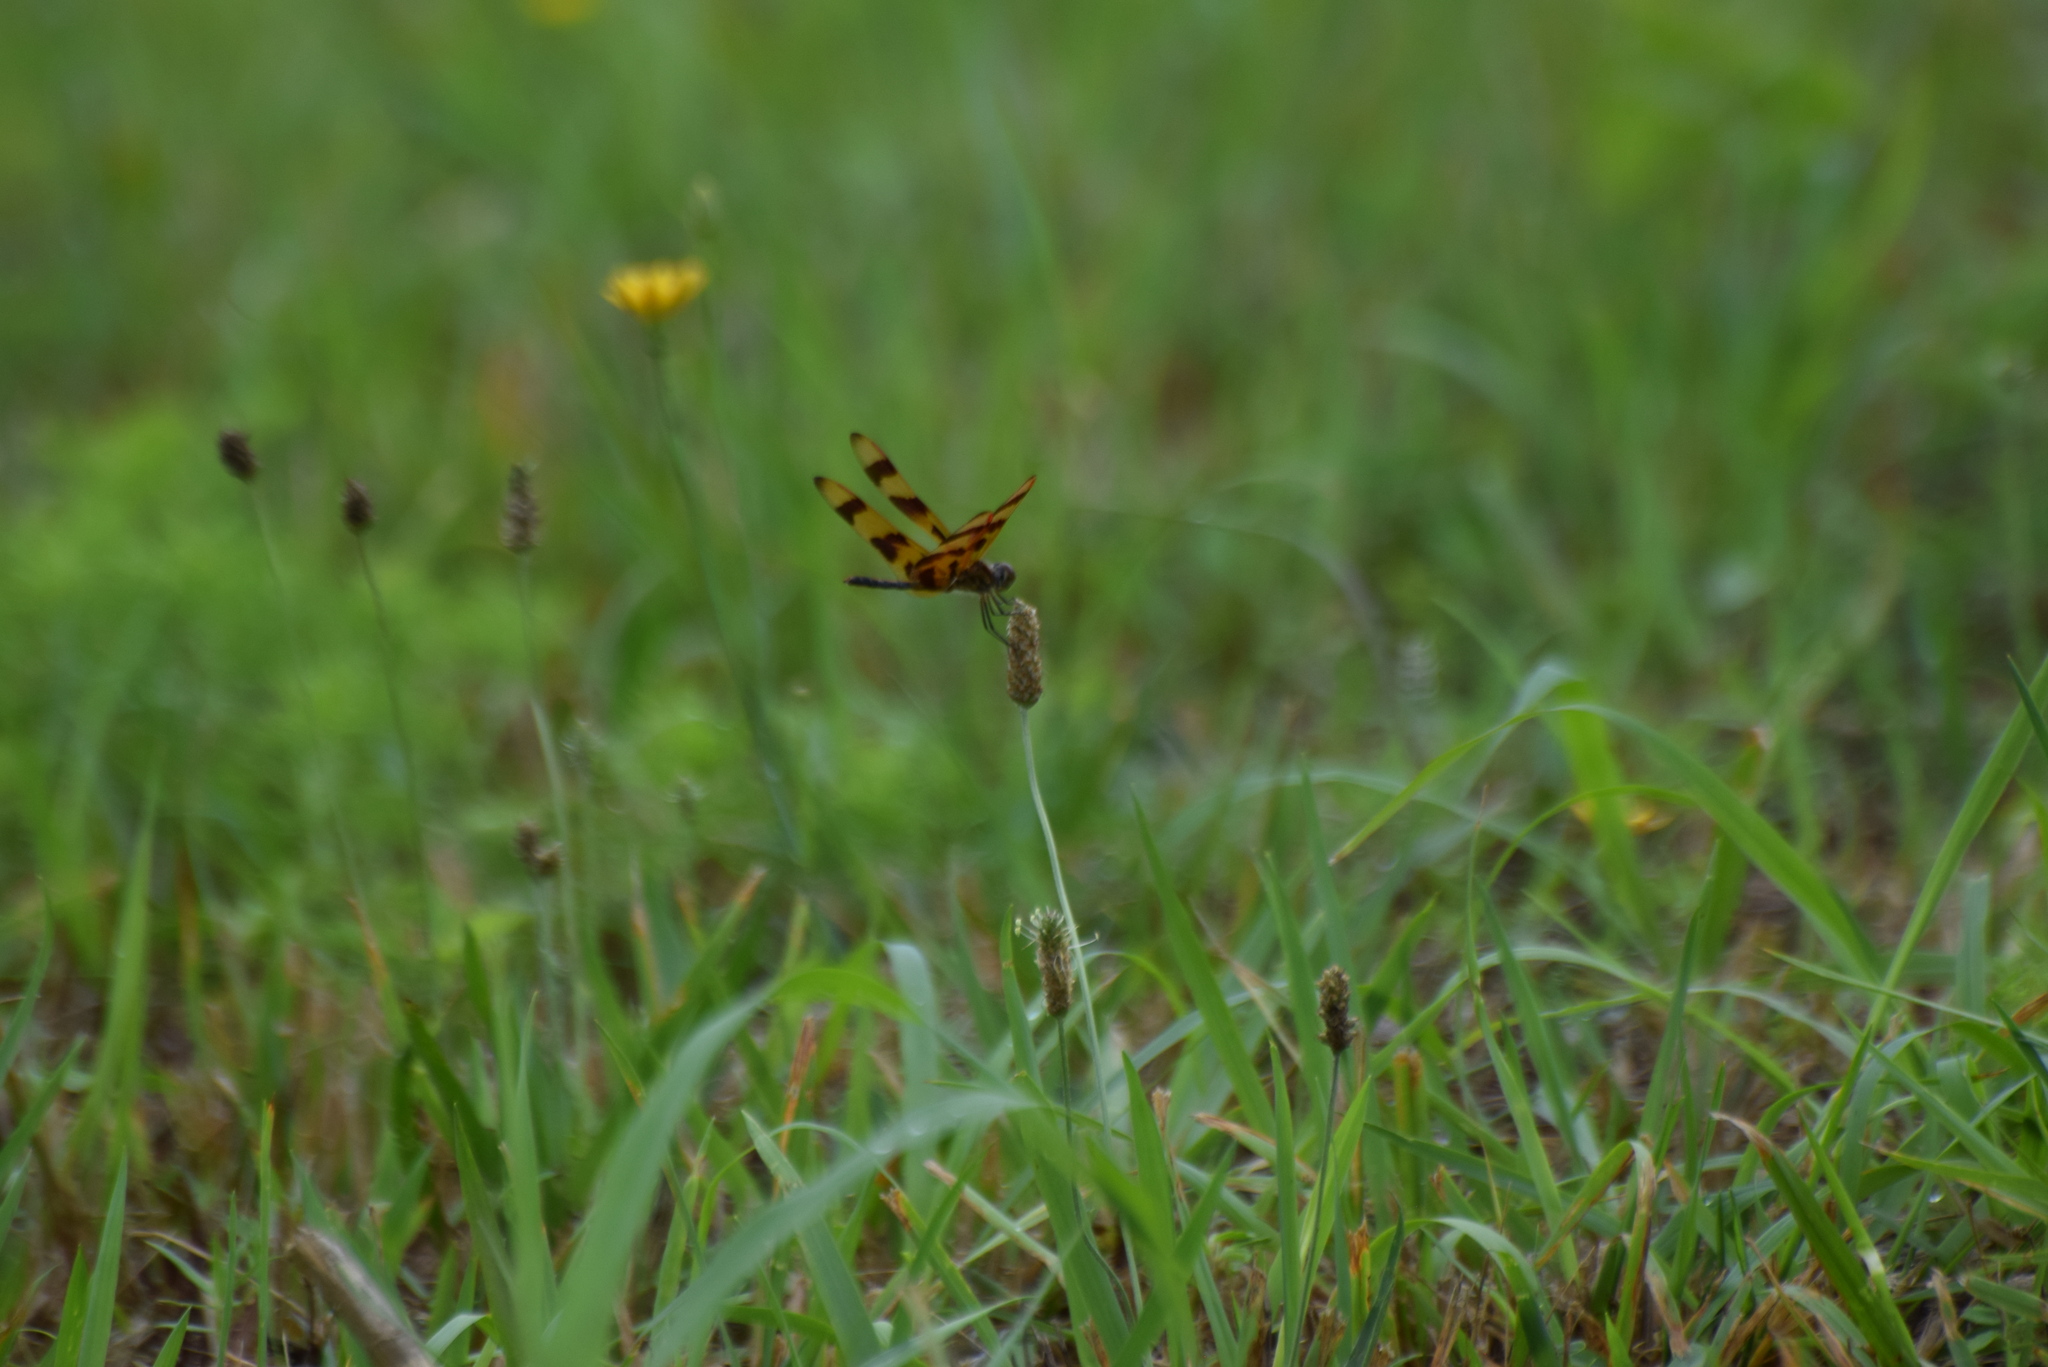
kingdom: Animalia
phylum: Arthropoda
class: Insecta
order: Odonata
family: Libellulidae
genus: Celithemis
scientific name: Celithemis eponina
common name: Halloween pennant
